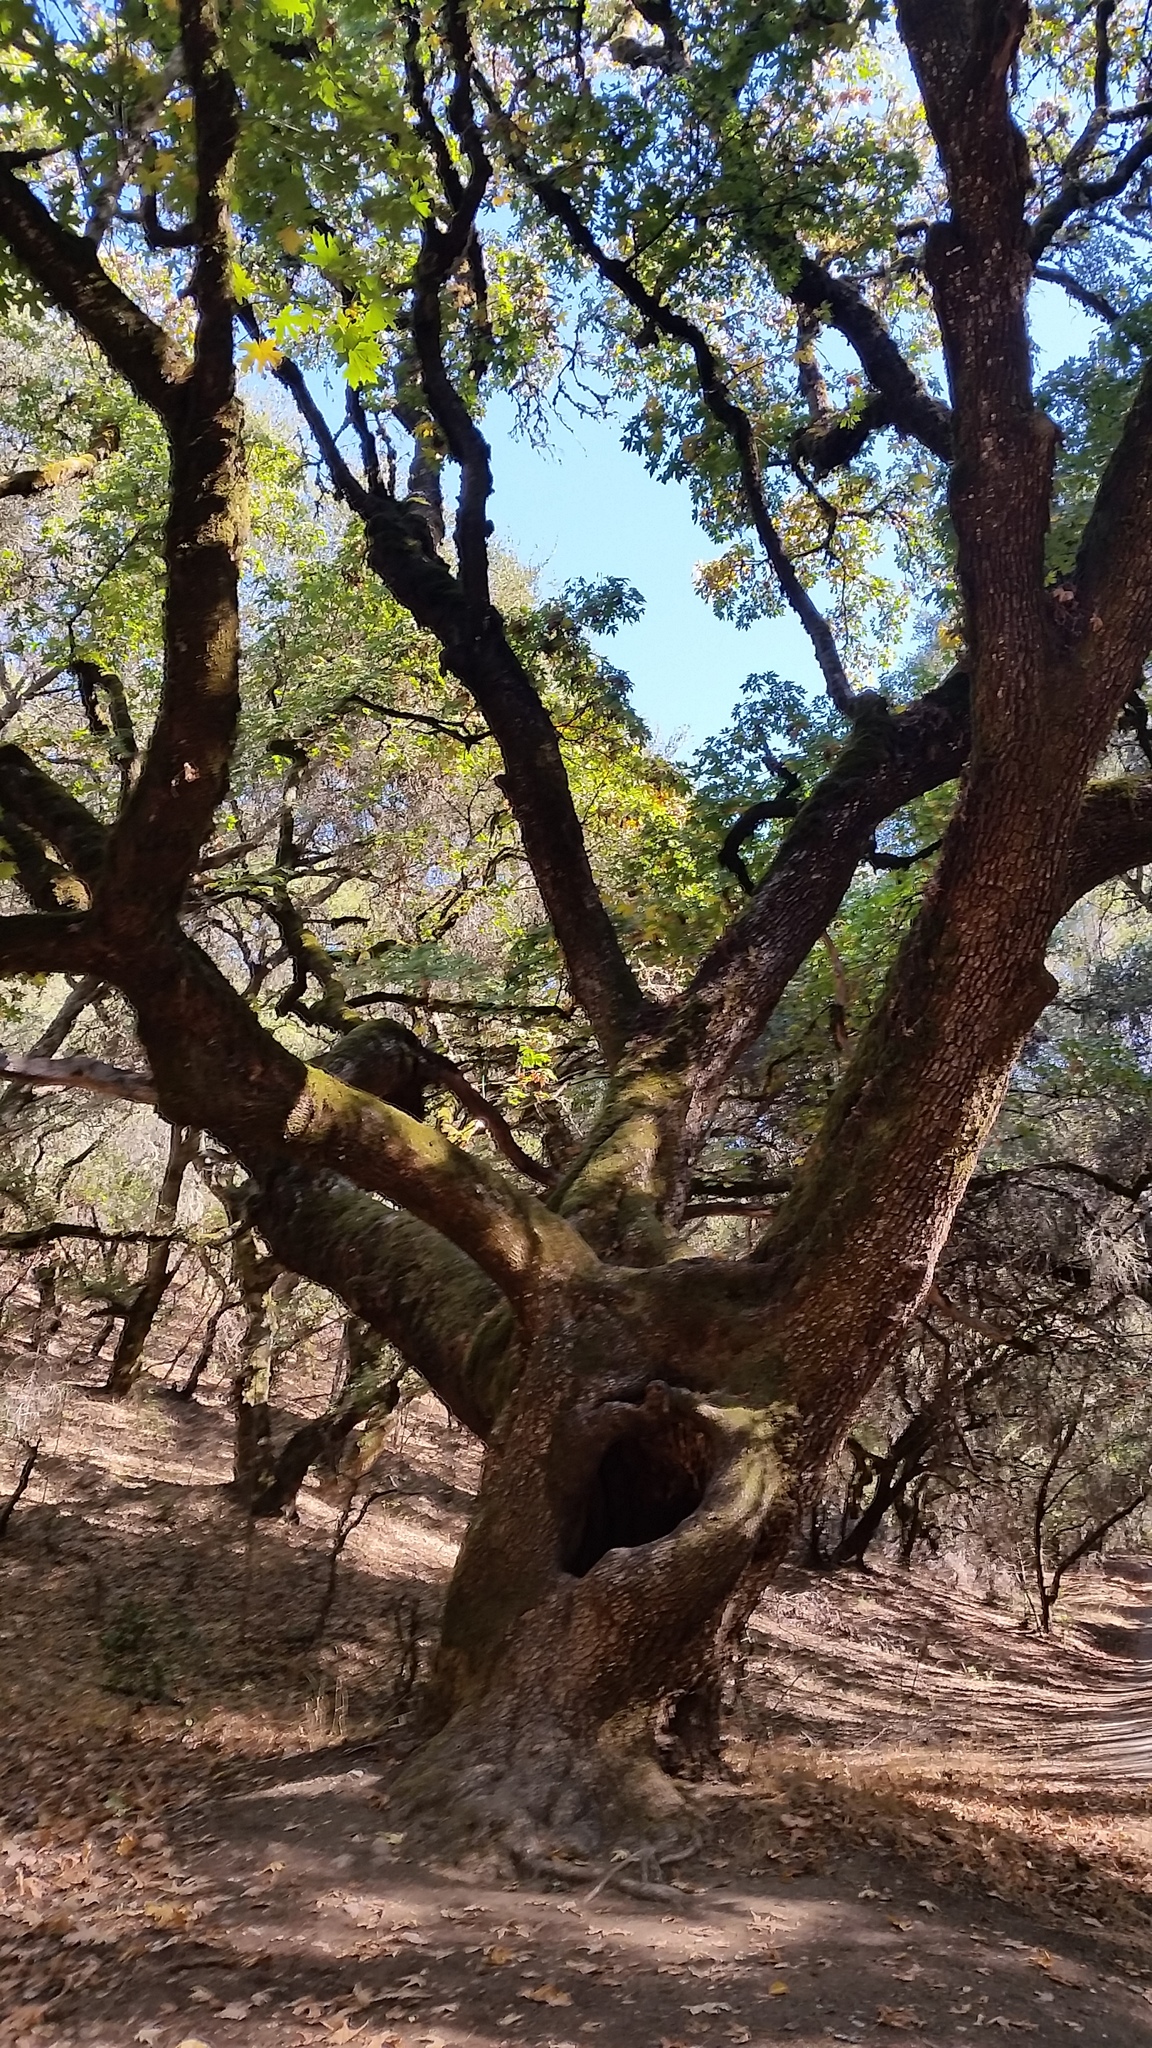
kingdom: Plantae
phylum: Tracheophyta
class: Magnoliopsida
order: Sapindales
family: Sapindaceae
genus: Acer
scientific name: Acer macrophyllum
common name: Oregon maple
